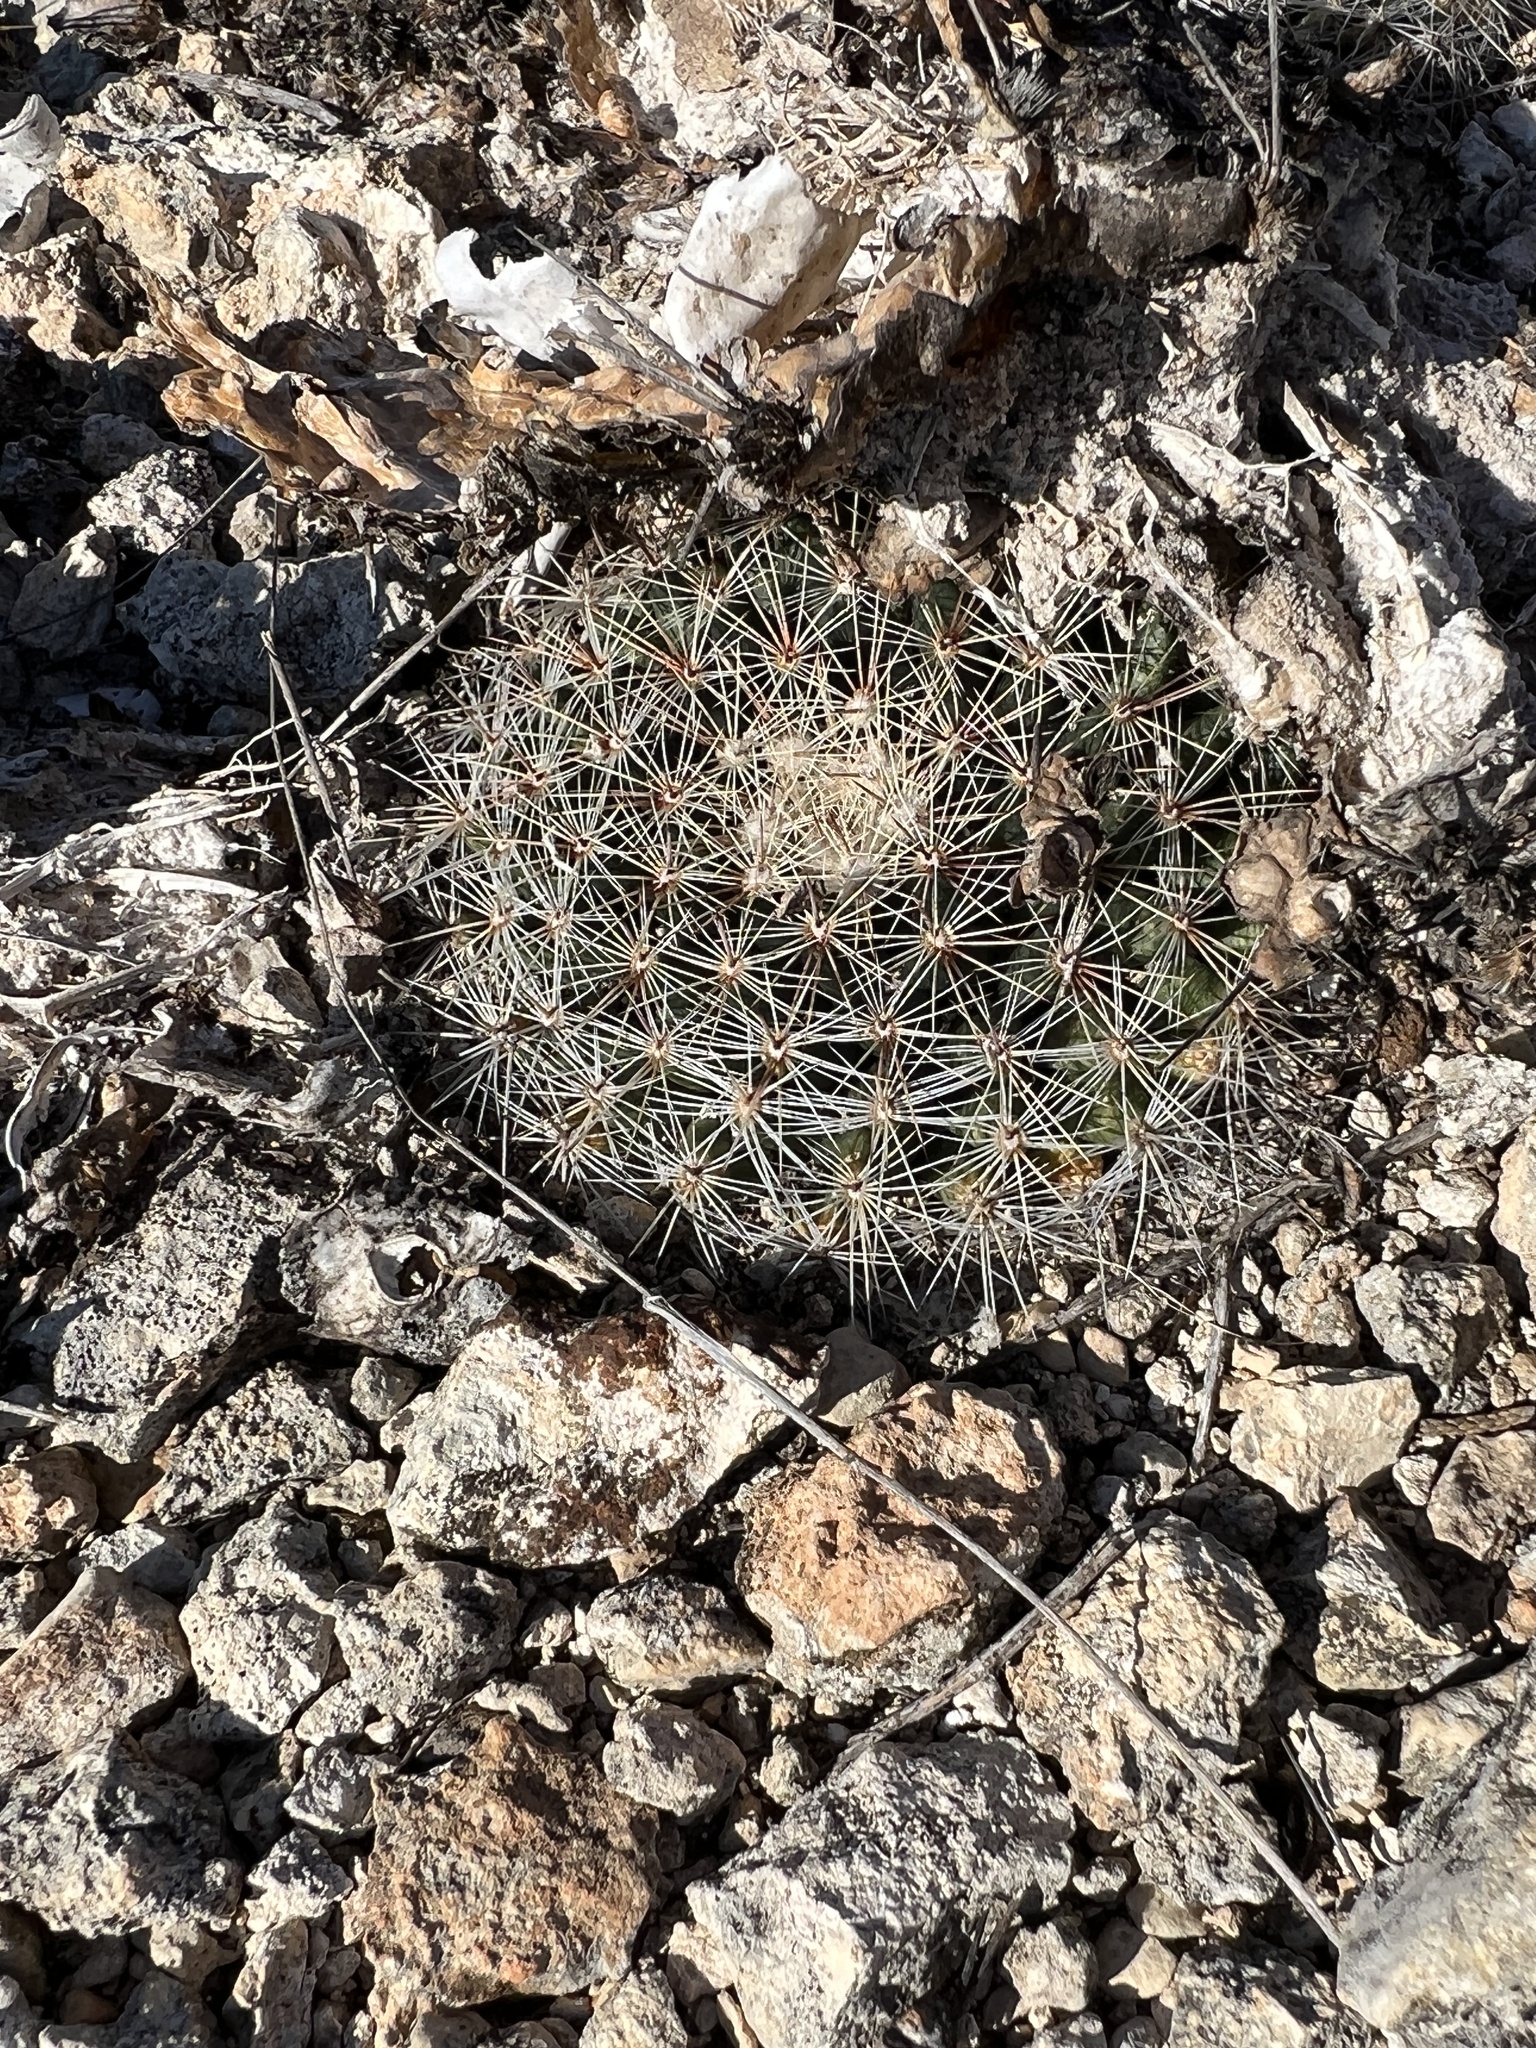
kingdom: Plantae
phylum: Tracheophyta
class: Magnoliopsida
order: Caryophyllales
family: Cactaceae
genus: Mammillaria
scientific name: Mammillaria heyderi
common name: Little nipple cactus
